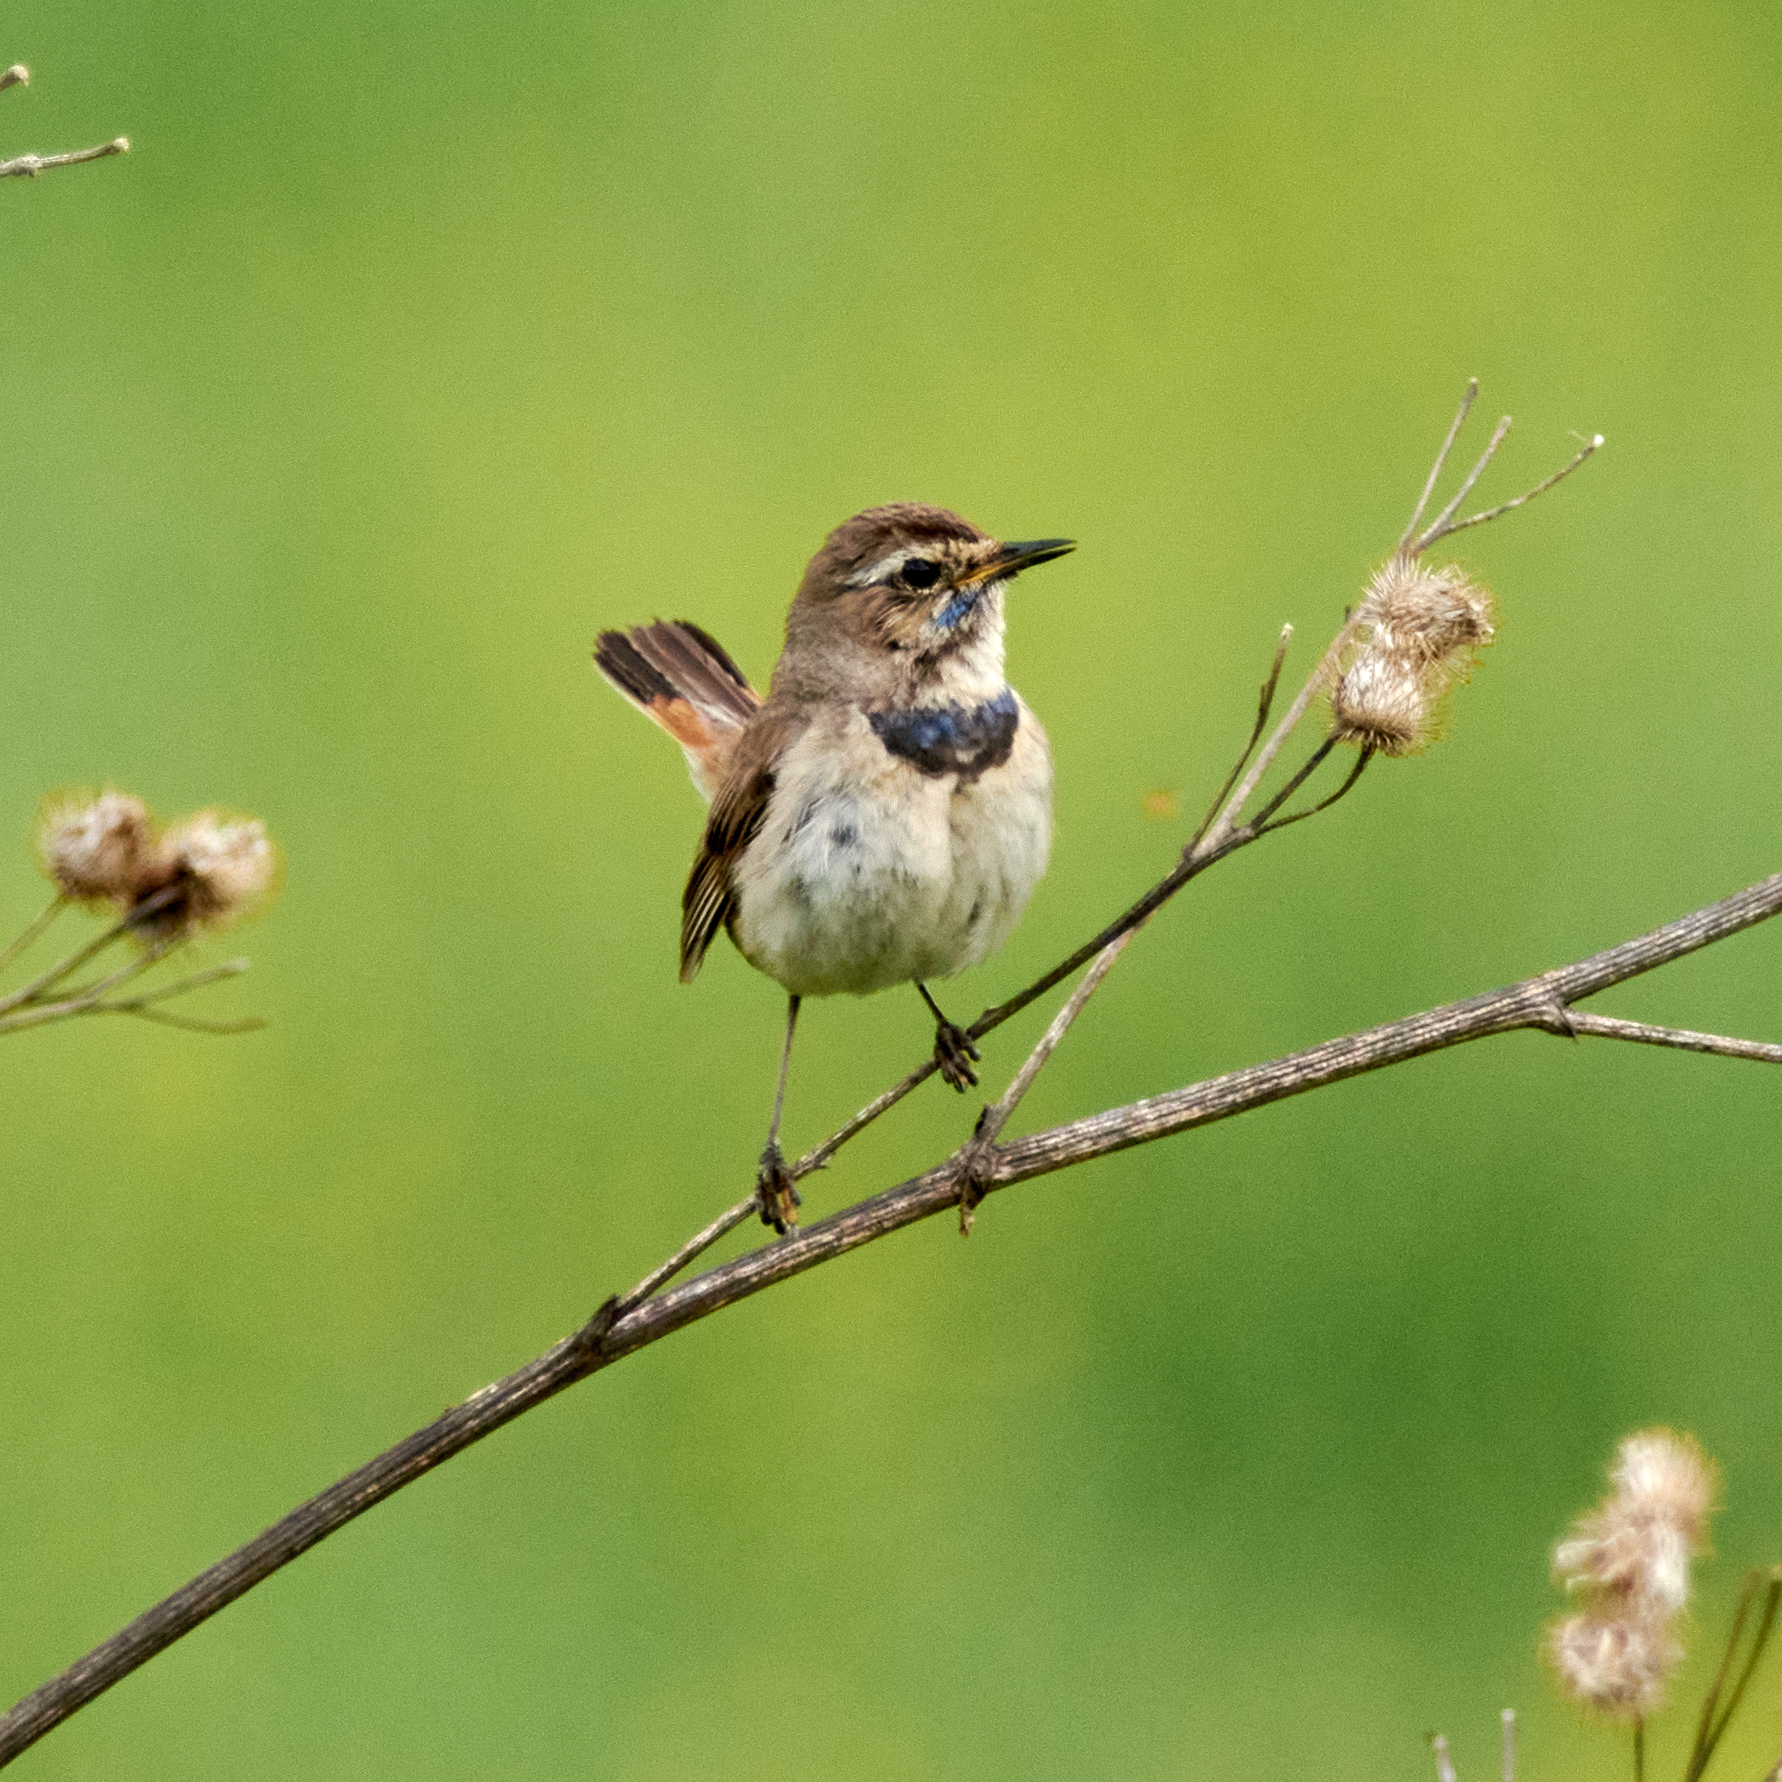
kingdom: Animalia
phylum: Chordata
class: Aves
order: Passeriformes
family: Muscicapidae
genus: Luscinia
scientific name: Luscinia svecica
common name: Bluethroat
